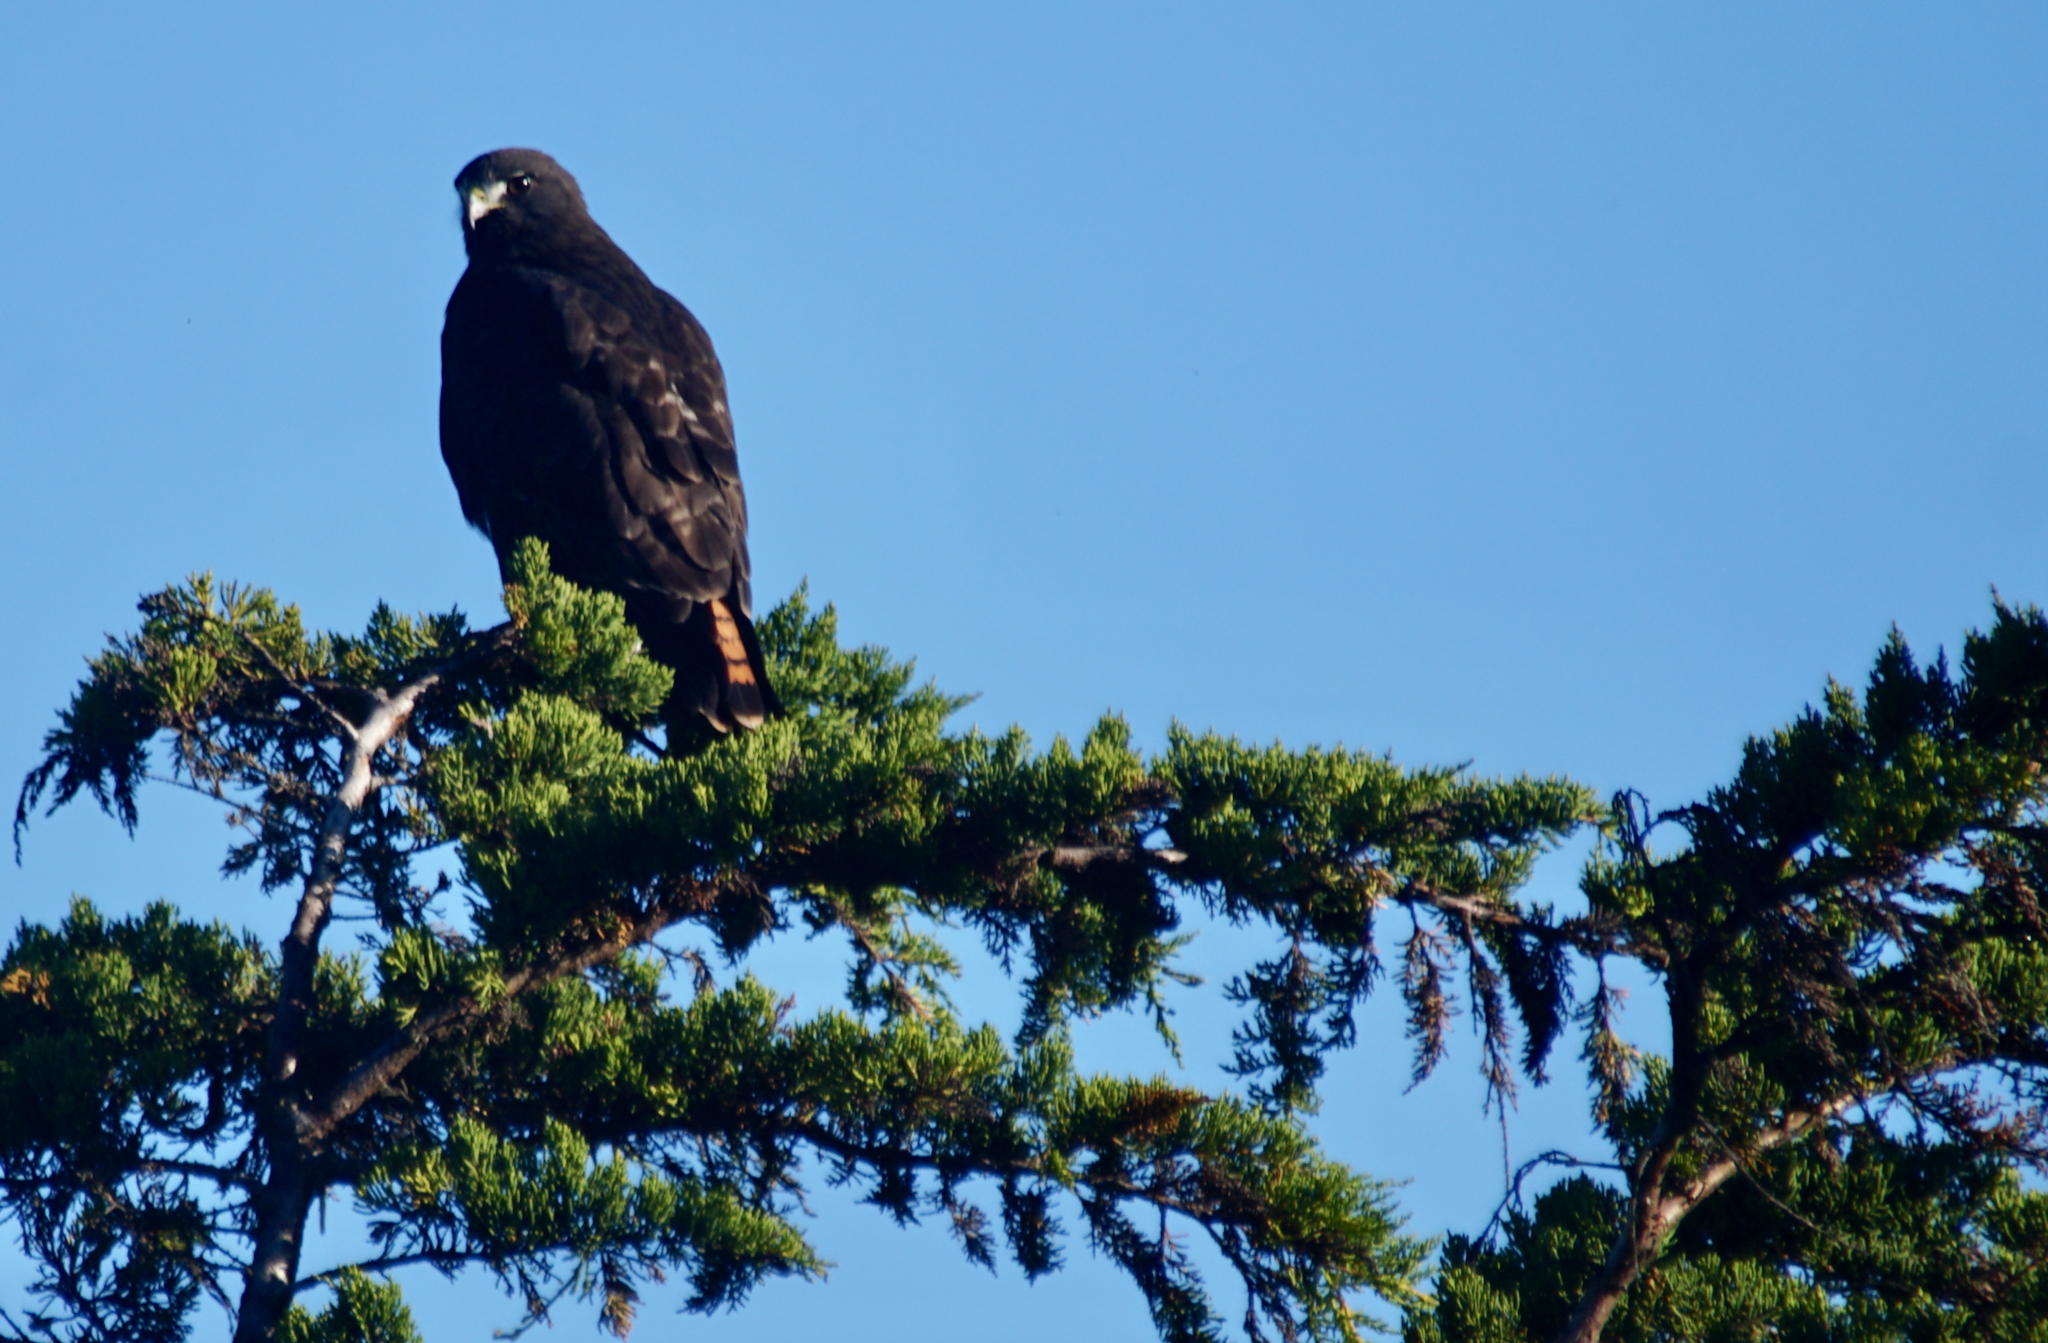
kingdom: Animalia
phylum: Chordata
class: Aves
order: Accipitriformes
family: Accipitridae
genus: Buteo
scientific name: Buteo jamaicensis
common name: Red-tailed hawk
